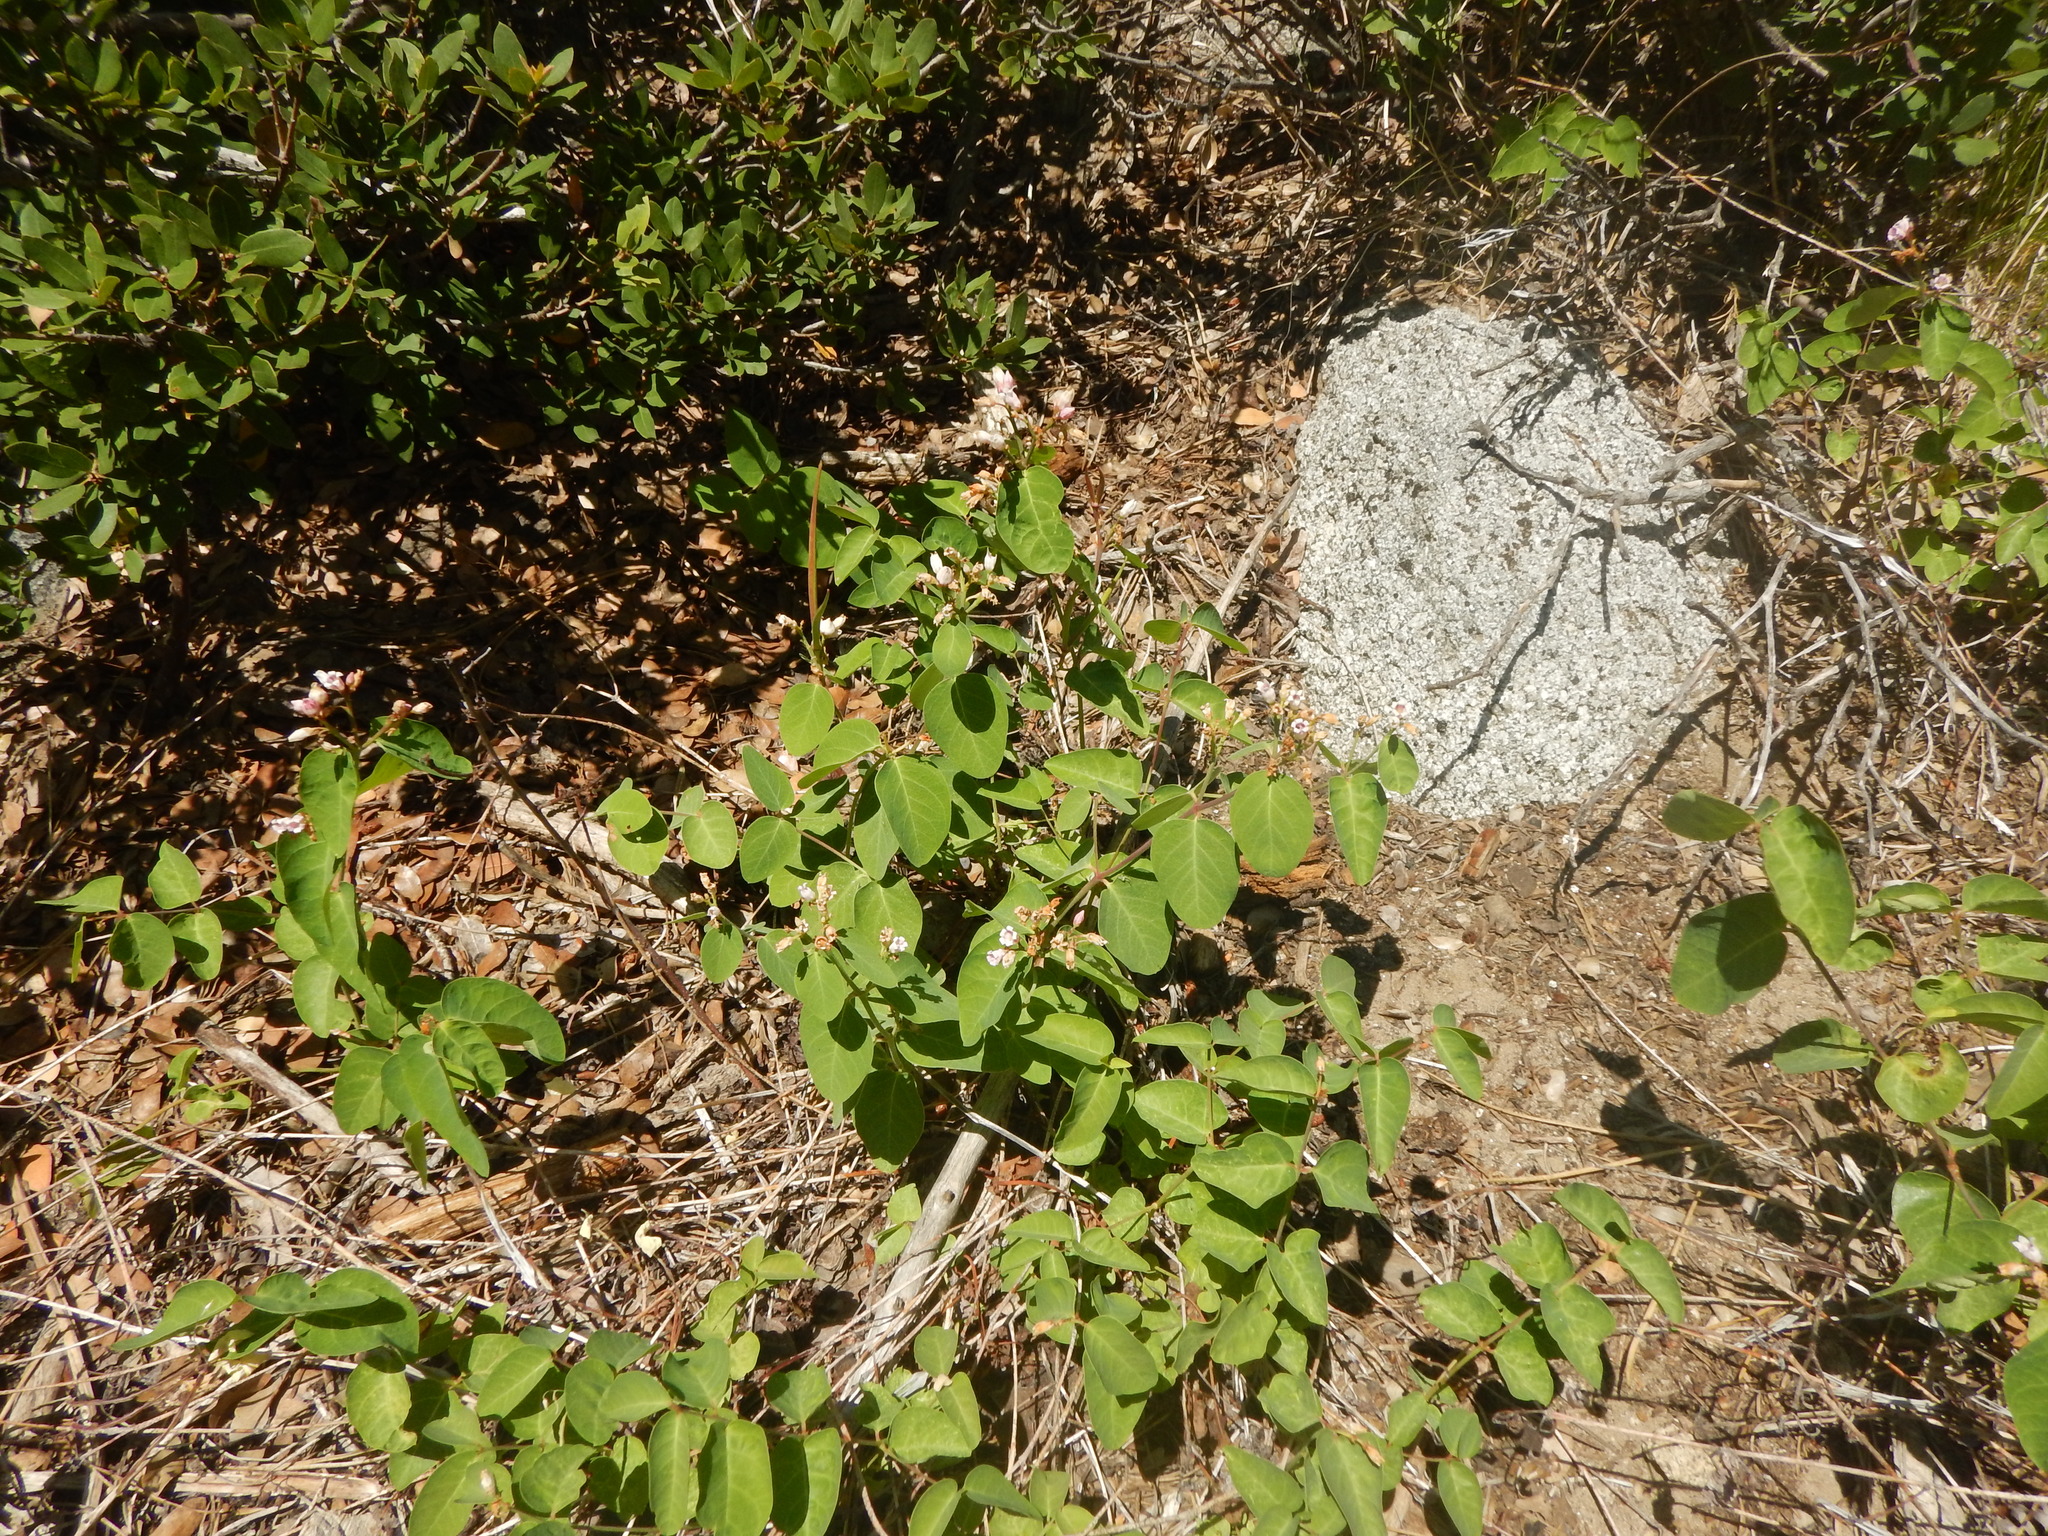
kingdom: Plantae
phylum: Tracheophyta
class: Magnoliopsida
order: Gentianales
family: Apocynaceae
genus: Apocynum
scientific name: Apocynum androsaemifolium
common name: Spreading dogbane
